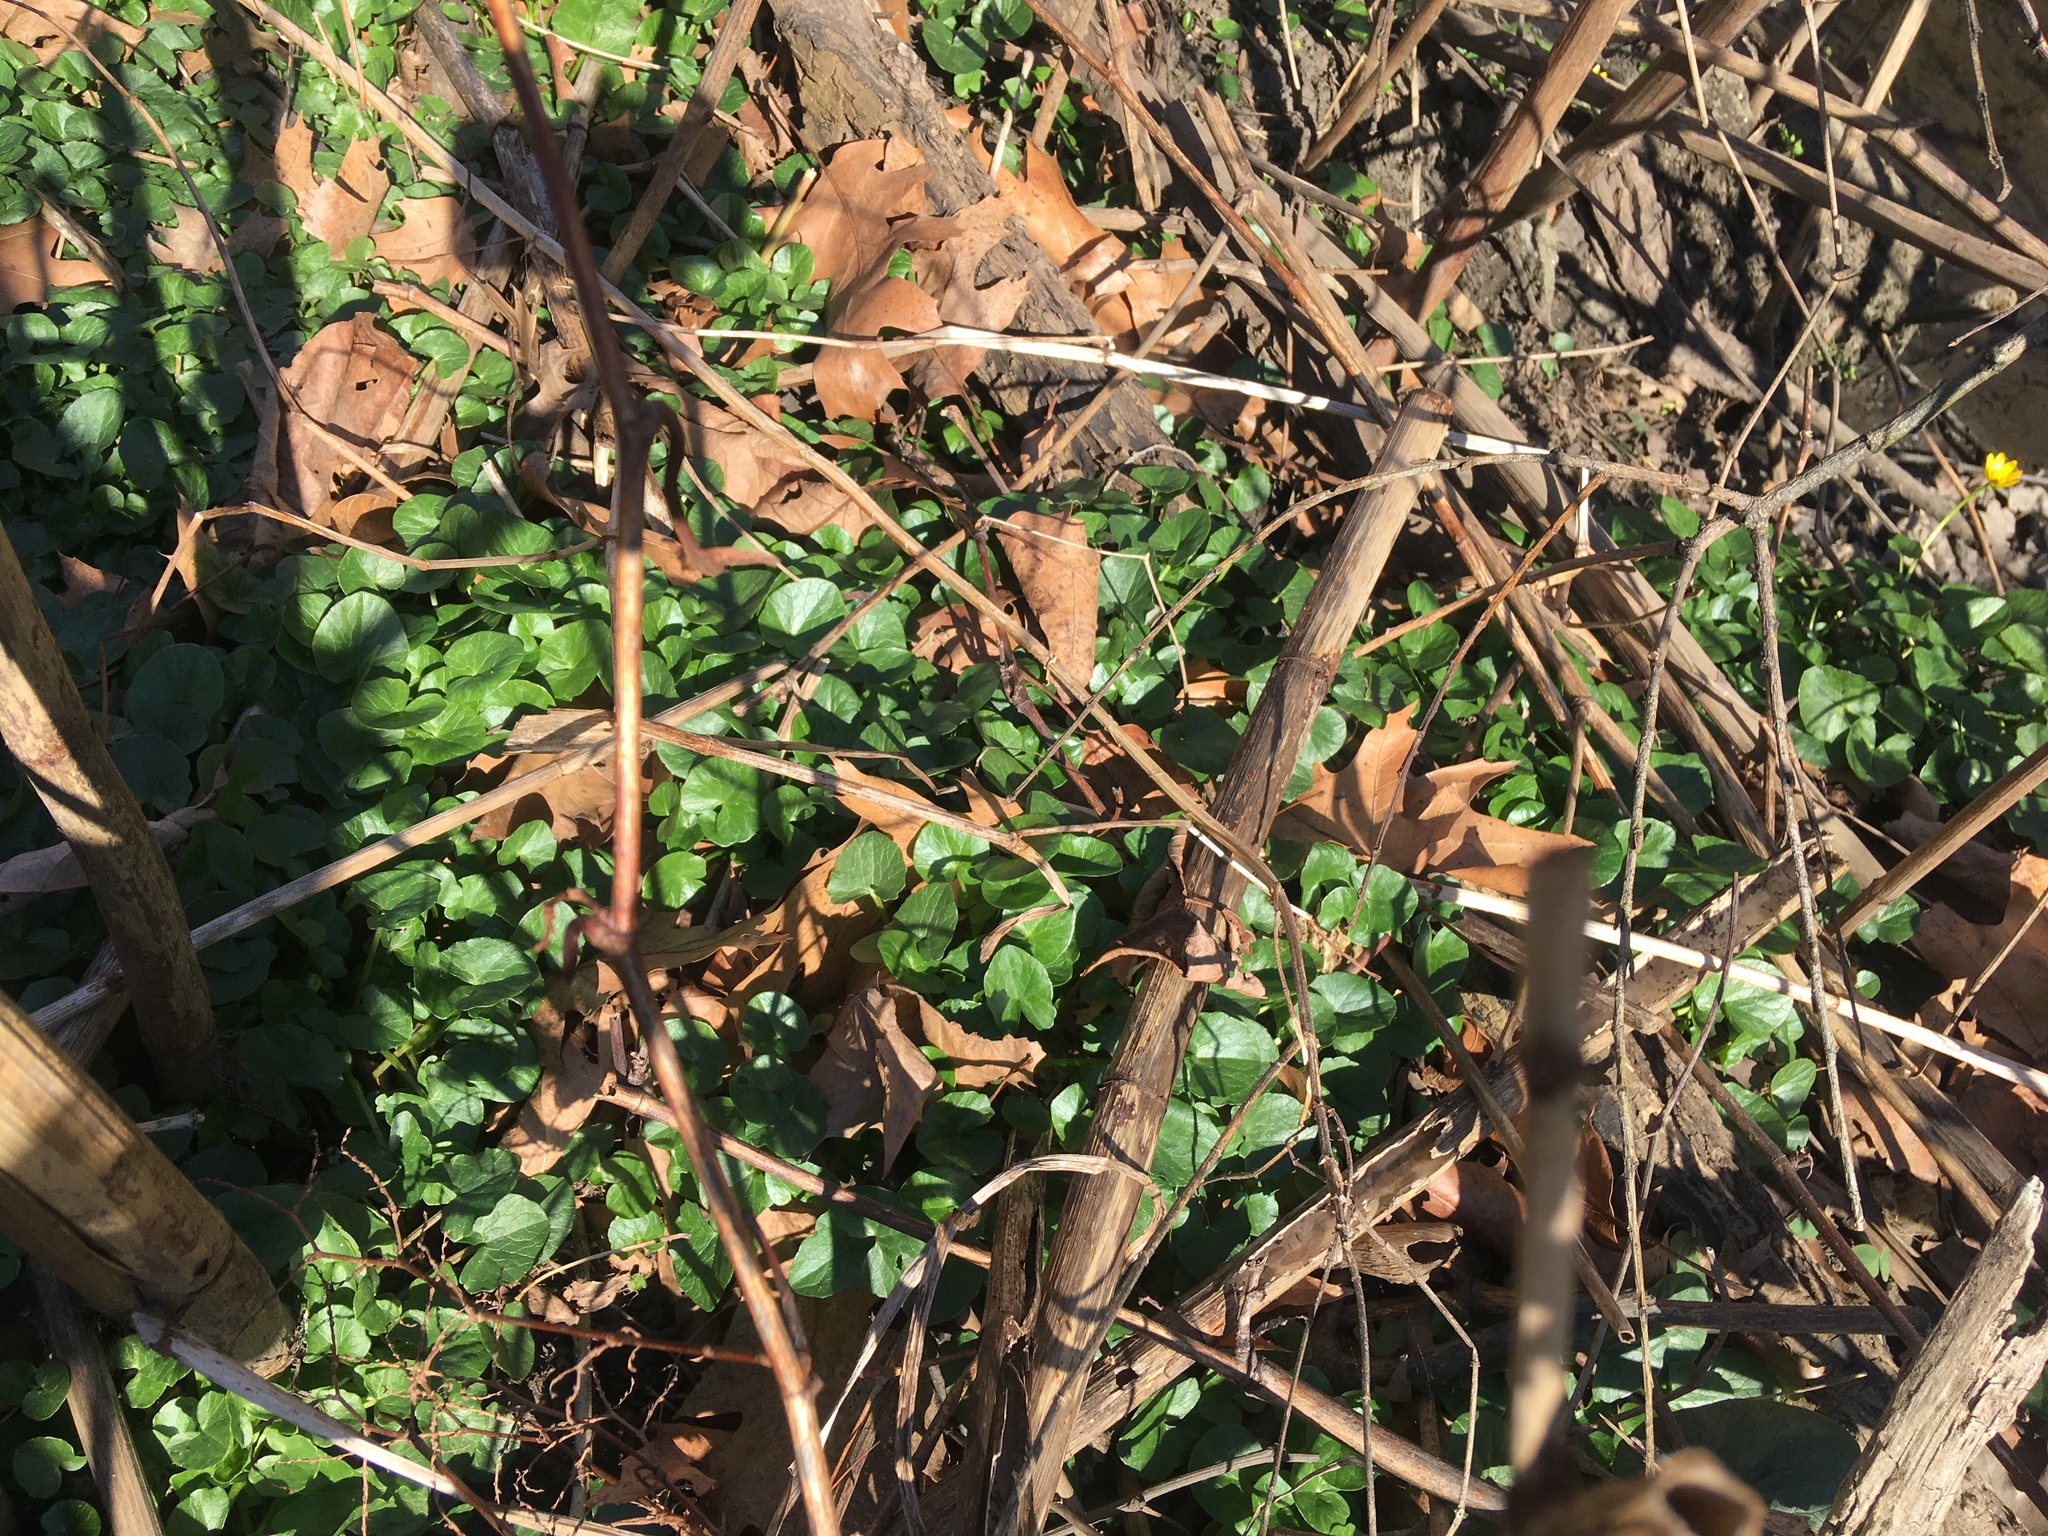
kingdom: Plantae
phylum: Tracheophyta
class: Magnoliopsida
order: Ranunculales
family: Ranunculaceae
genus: Ficaria
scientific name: Ficaria verna
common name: Lesser celandine
